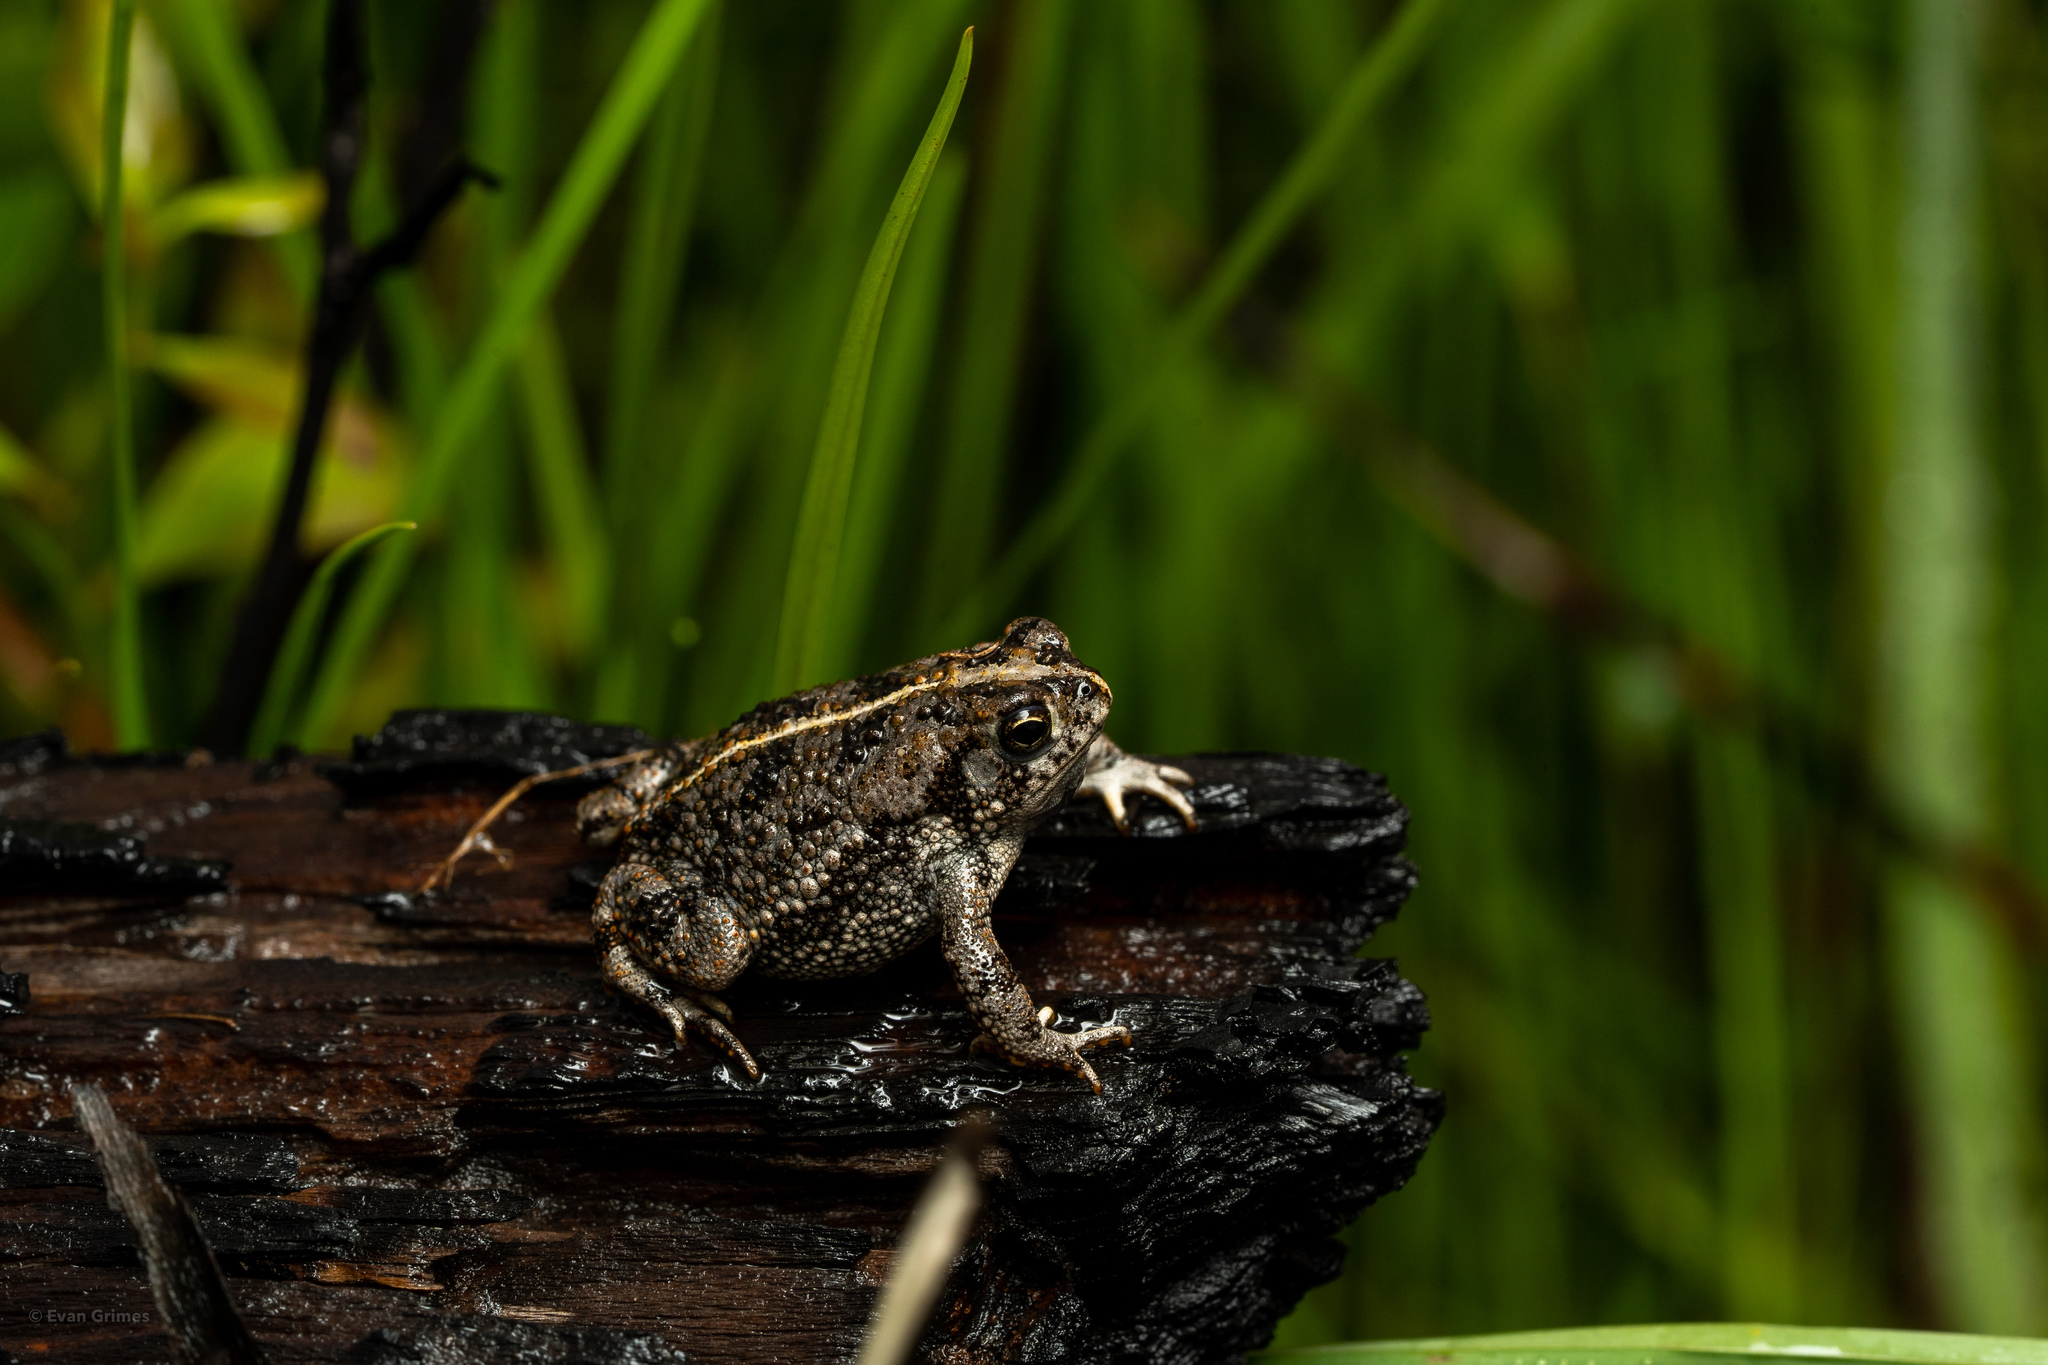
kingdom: Animalia
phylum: Chordata
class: Amphibia
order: Anura
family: Bufonidae
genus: Anaxyrus
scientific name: Anaxyrus quercicus
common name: Oak toad
